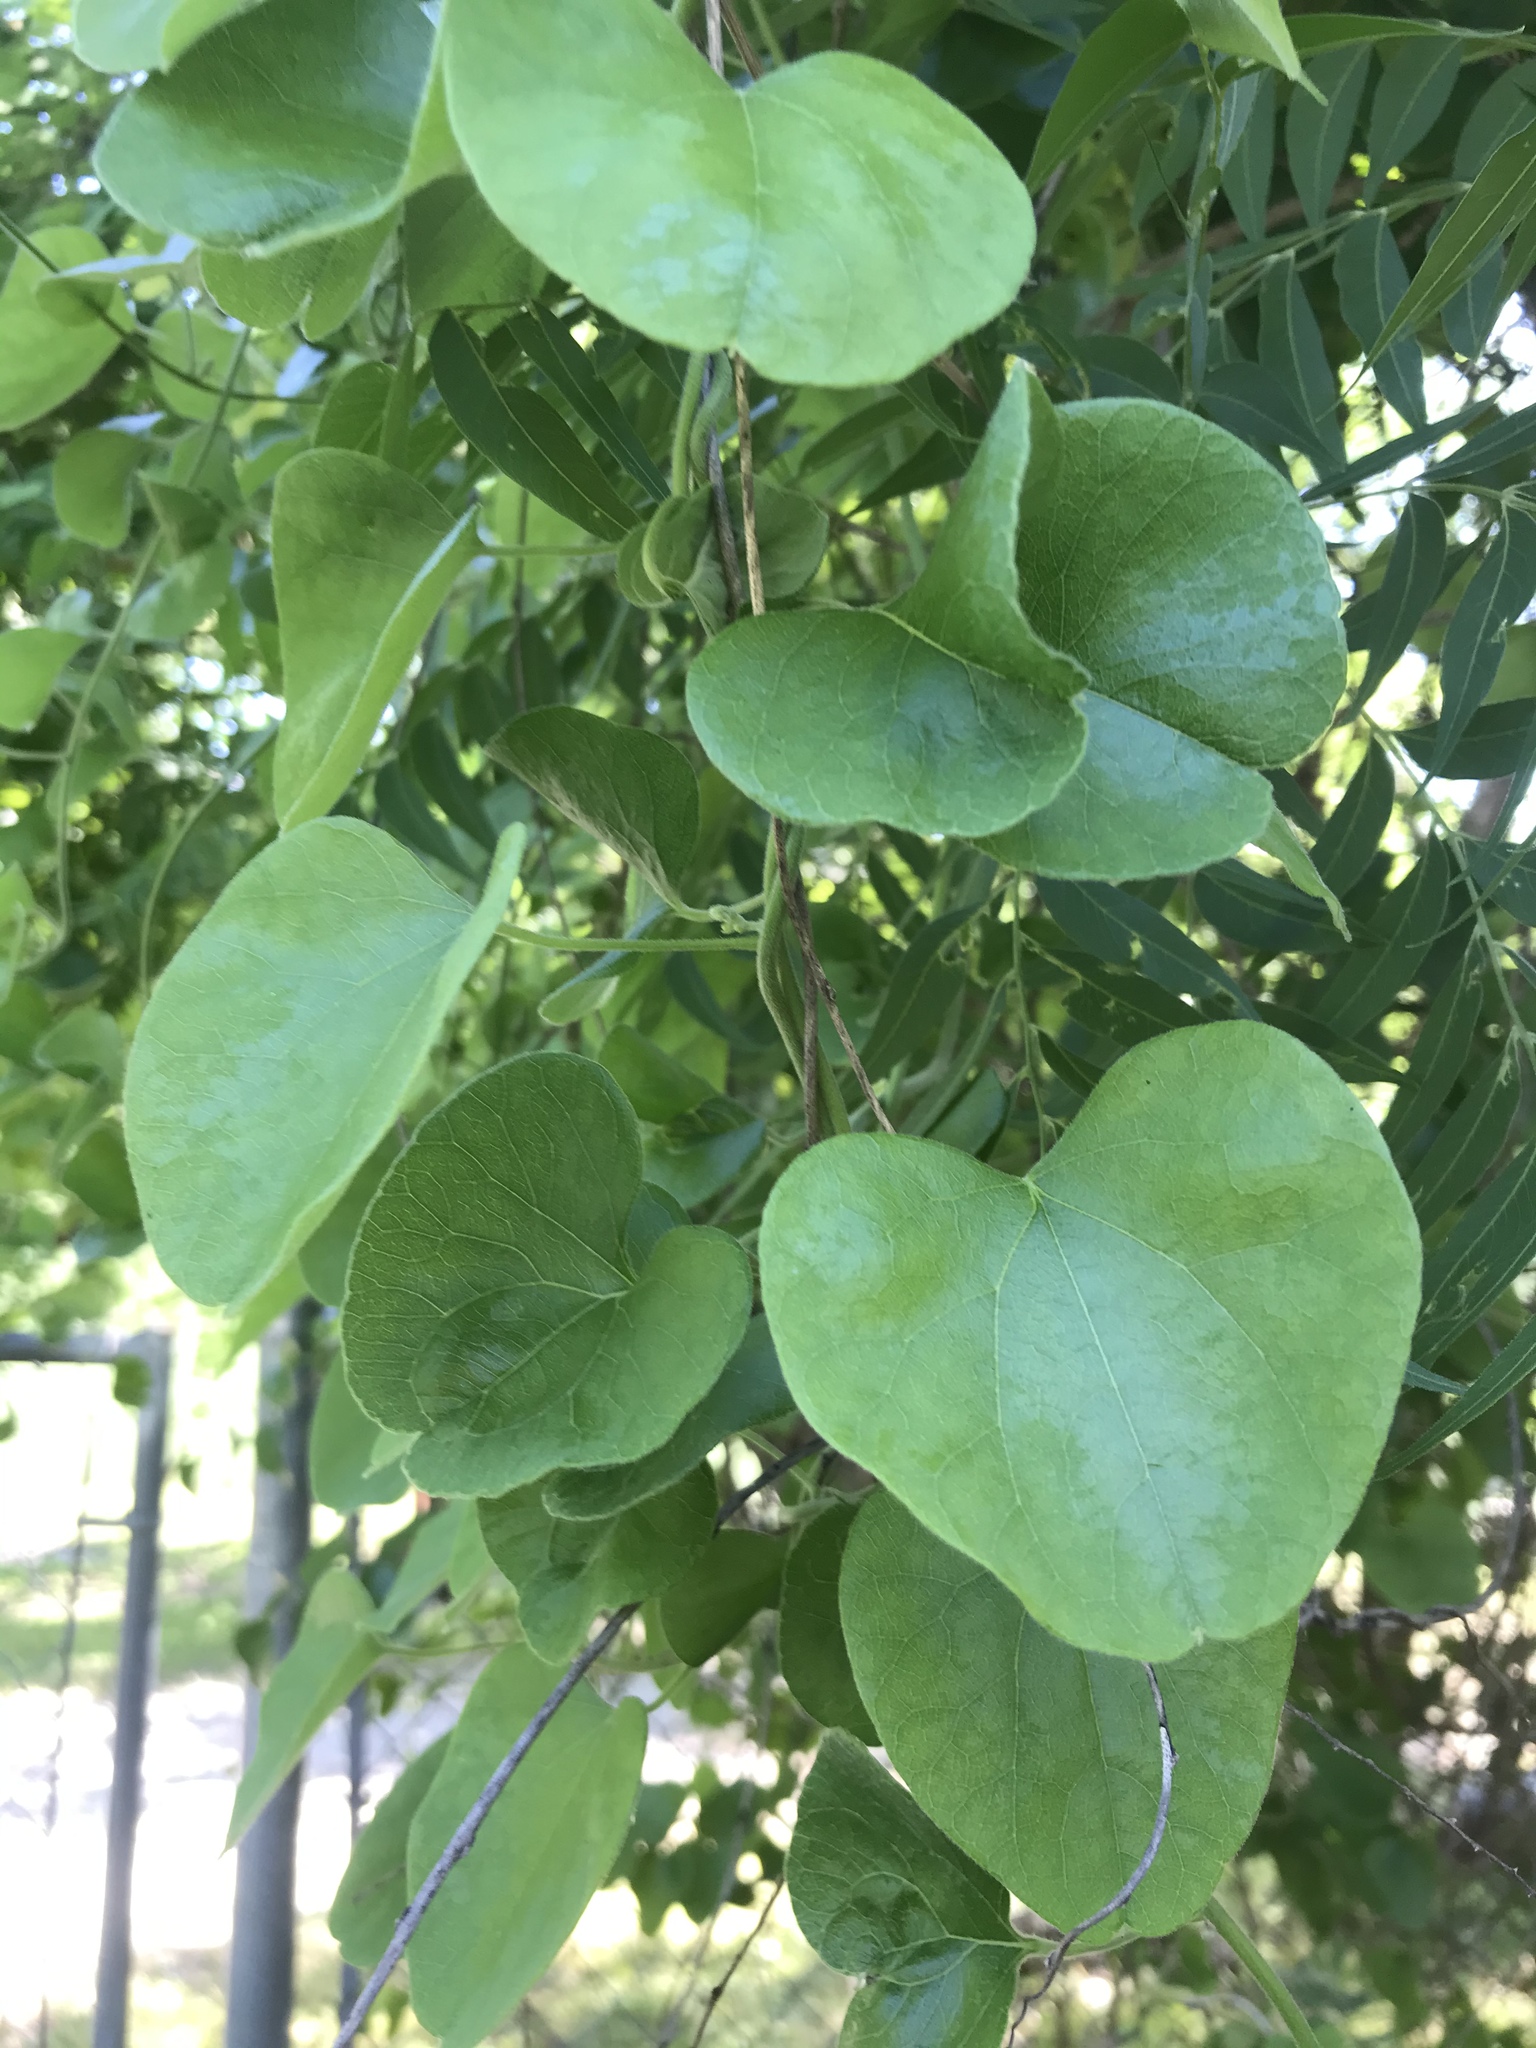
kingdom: Plantae
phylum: Tracheophyta
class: Magnoliopsida
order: Ranunculales
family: Menispermaceae
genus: Cocculus
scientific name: Cocculus carolinus
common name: Carolina moonseed
